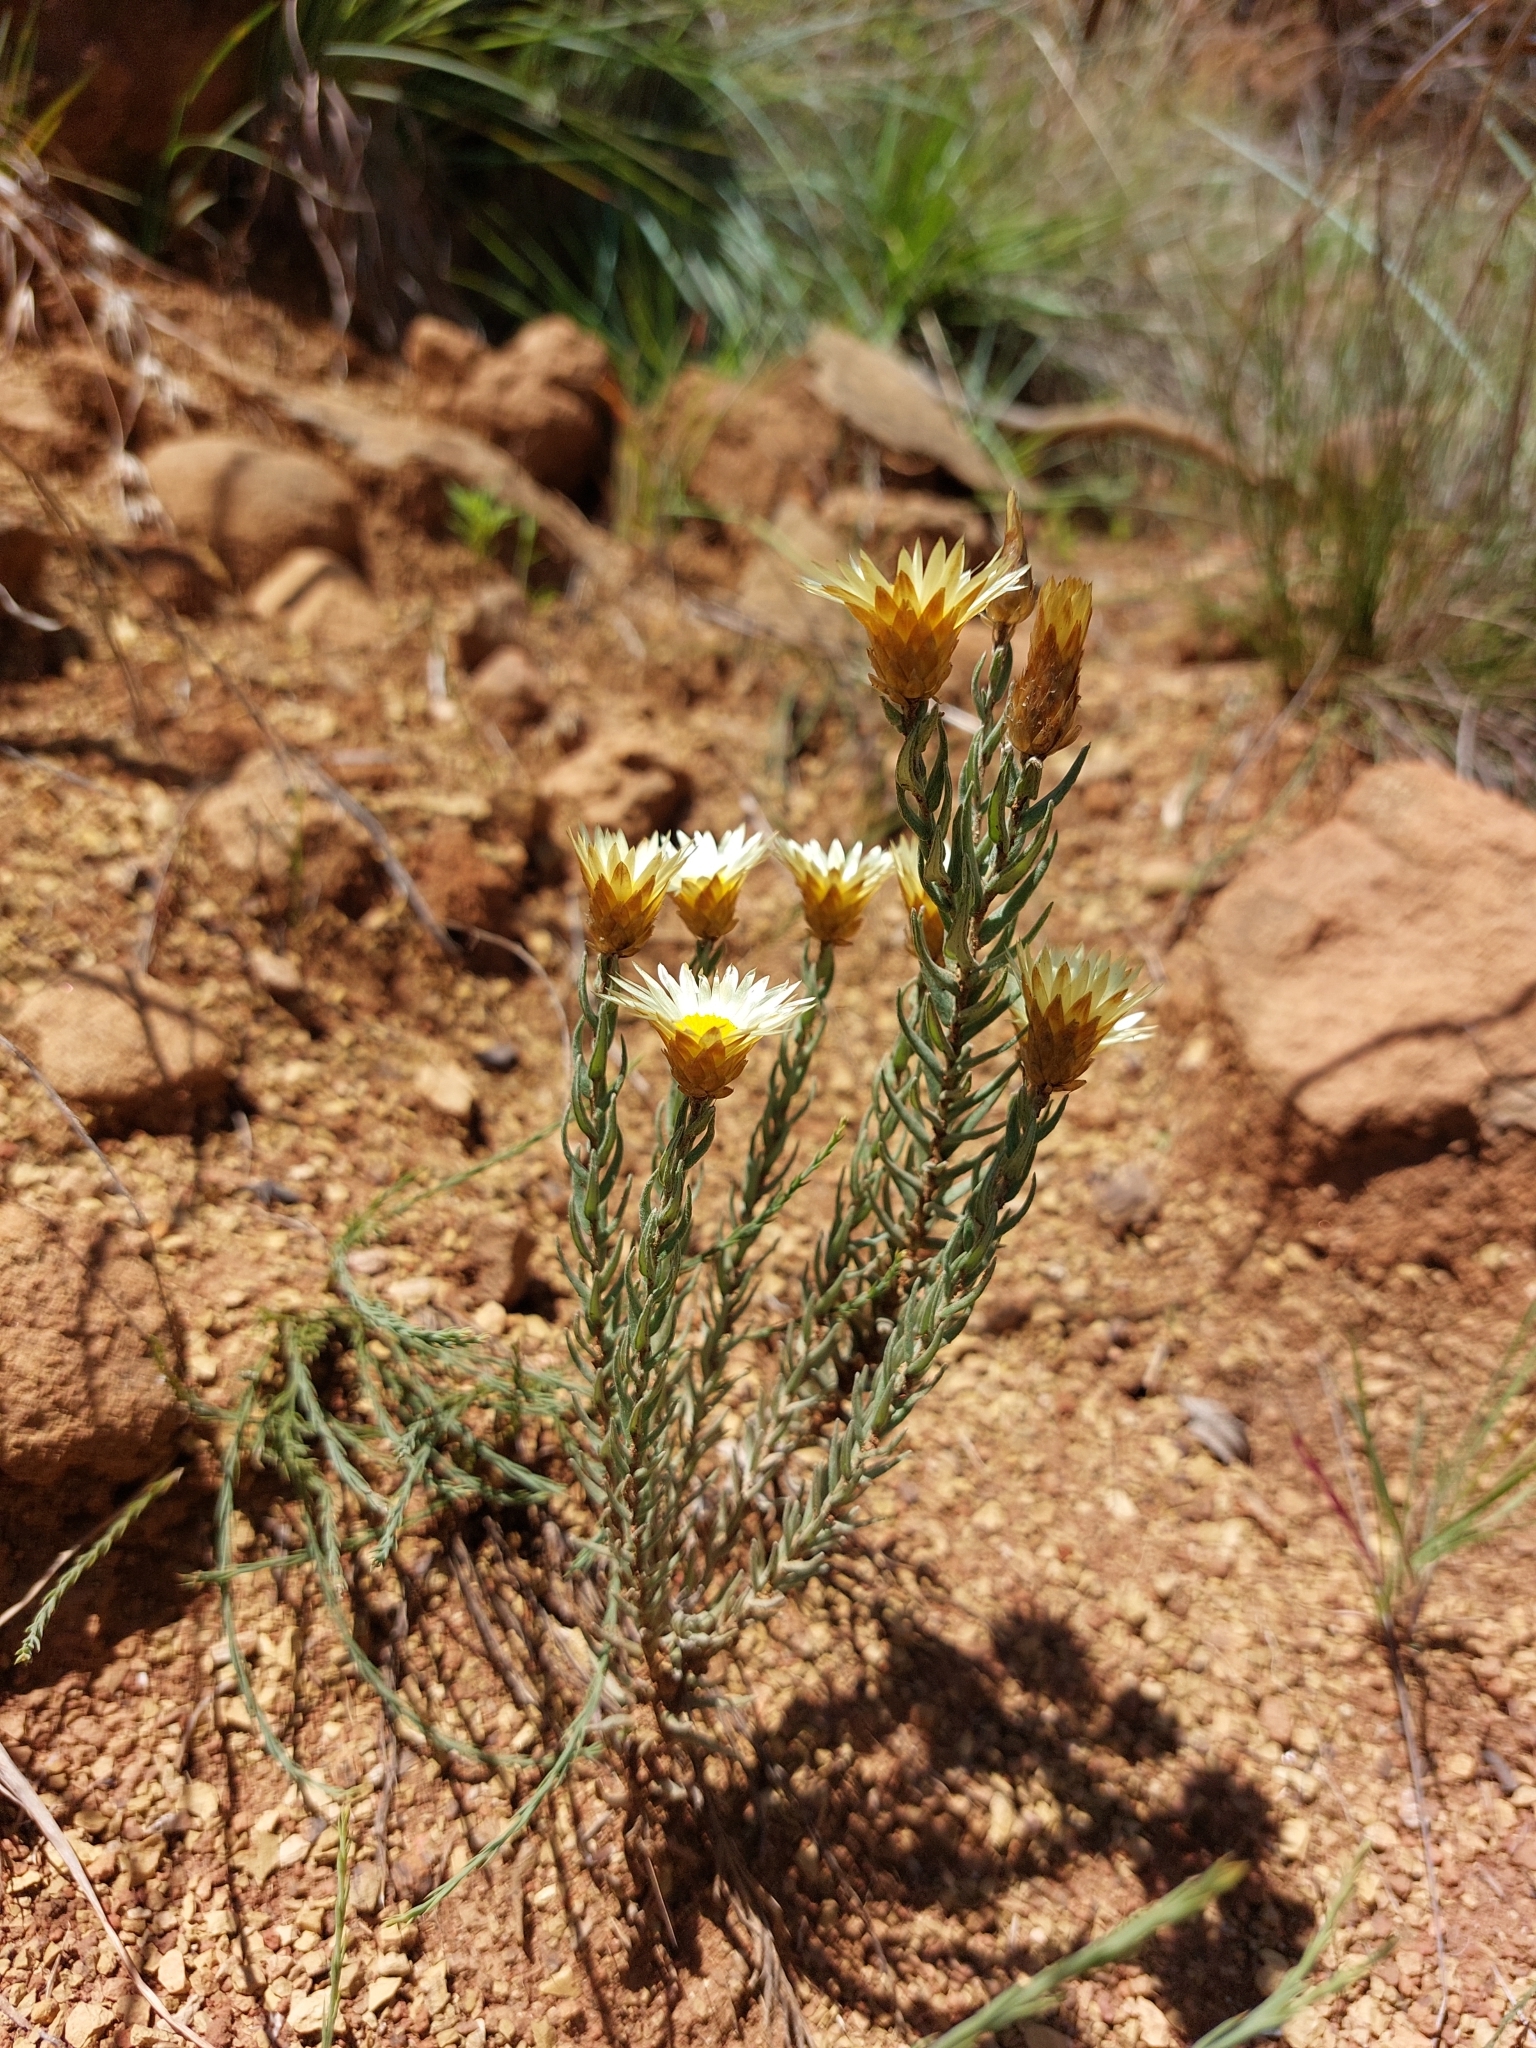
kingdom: Plantae
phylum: Tracheophyta
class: Magnoliopsida
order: Asterales
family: Asteraceae
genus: Helichrysum
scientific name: Helichrysum herbaceum
